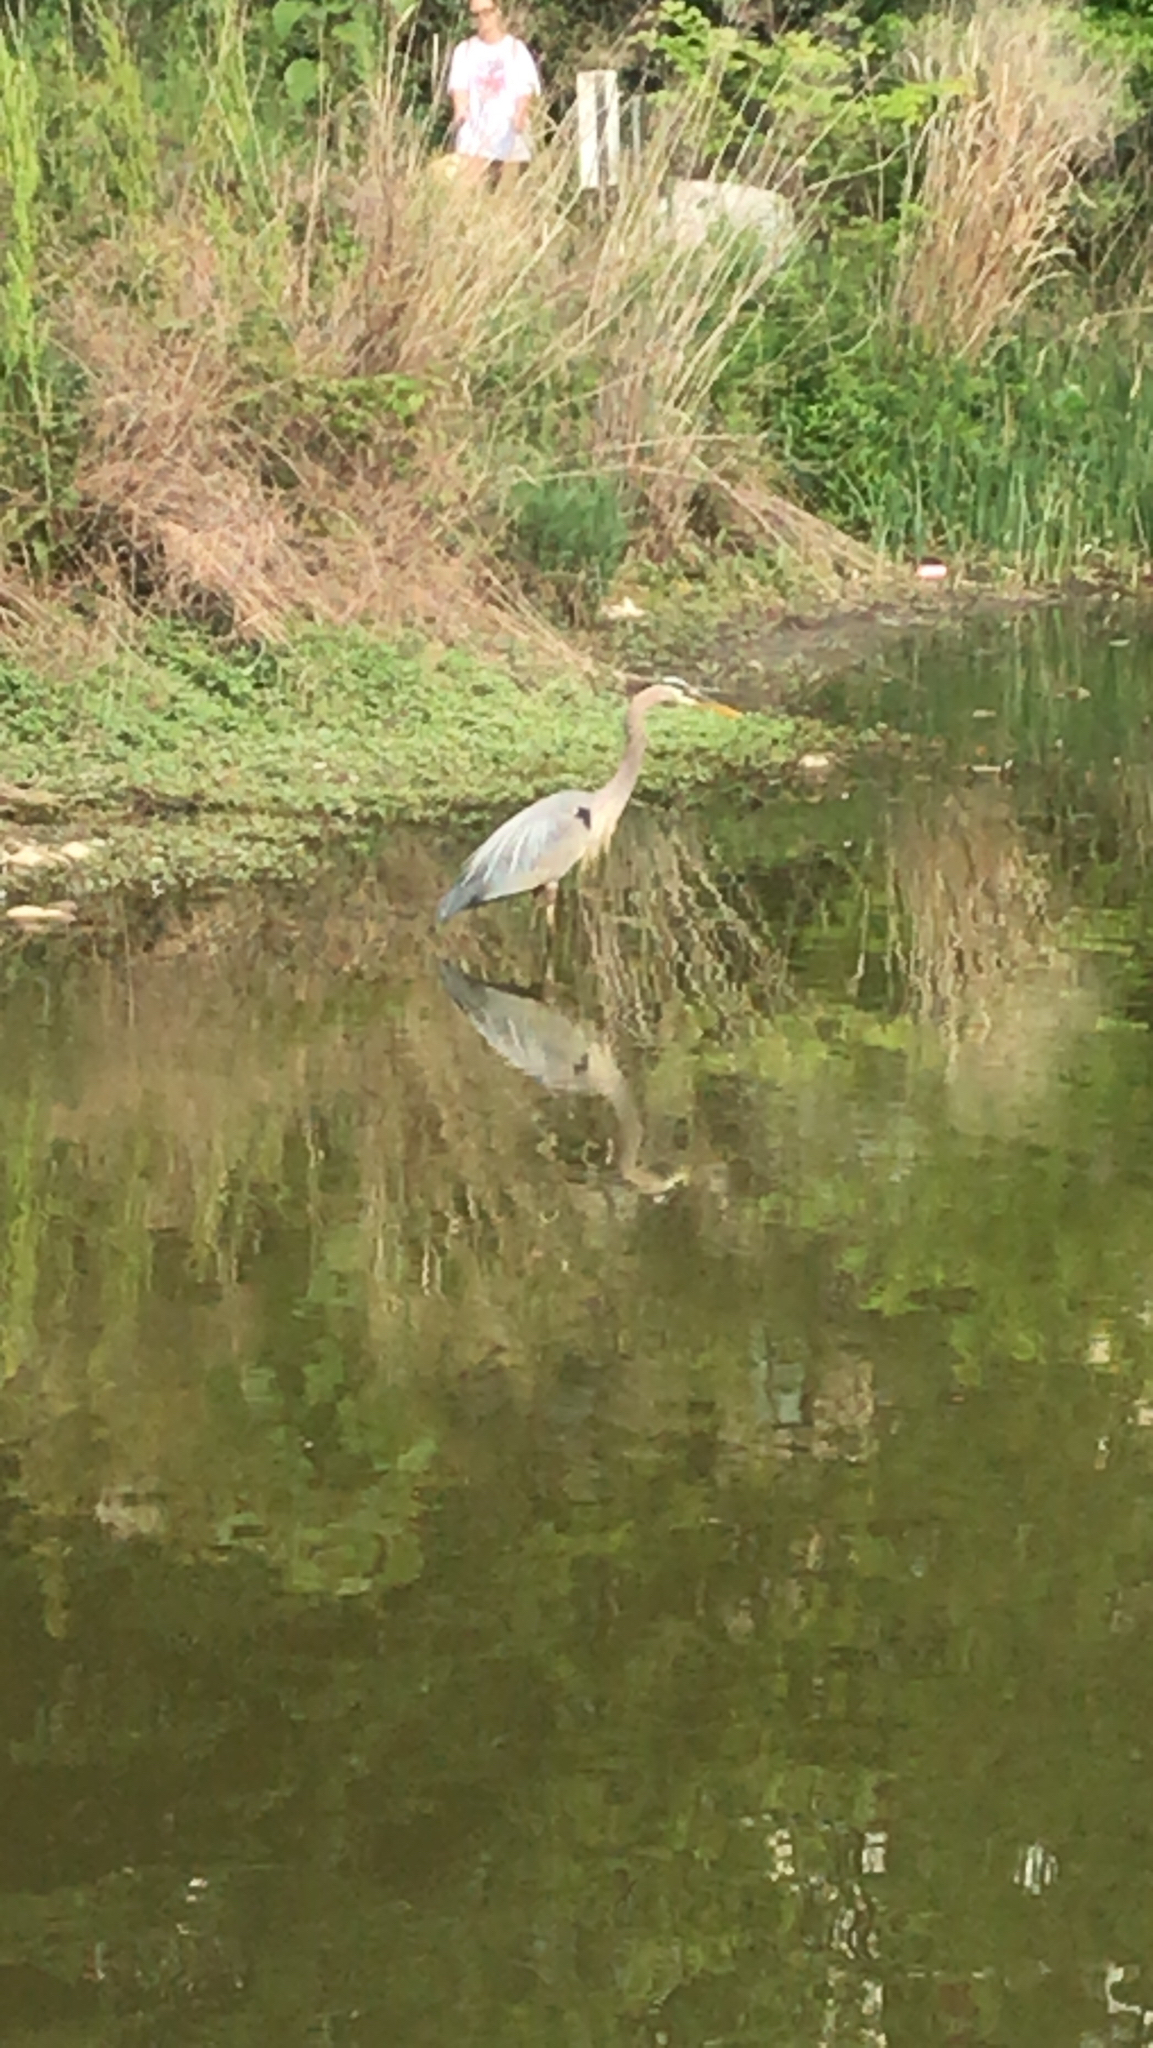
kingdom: Animalia
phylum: Chordata
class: Aves
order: Pelecaniformes
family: Ardeidae
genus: Ardea
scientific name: Ardea herodias
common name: Great blue heron
